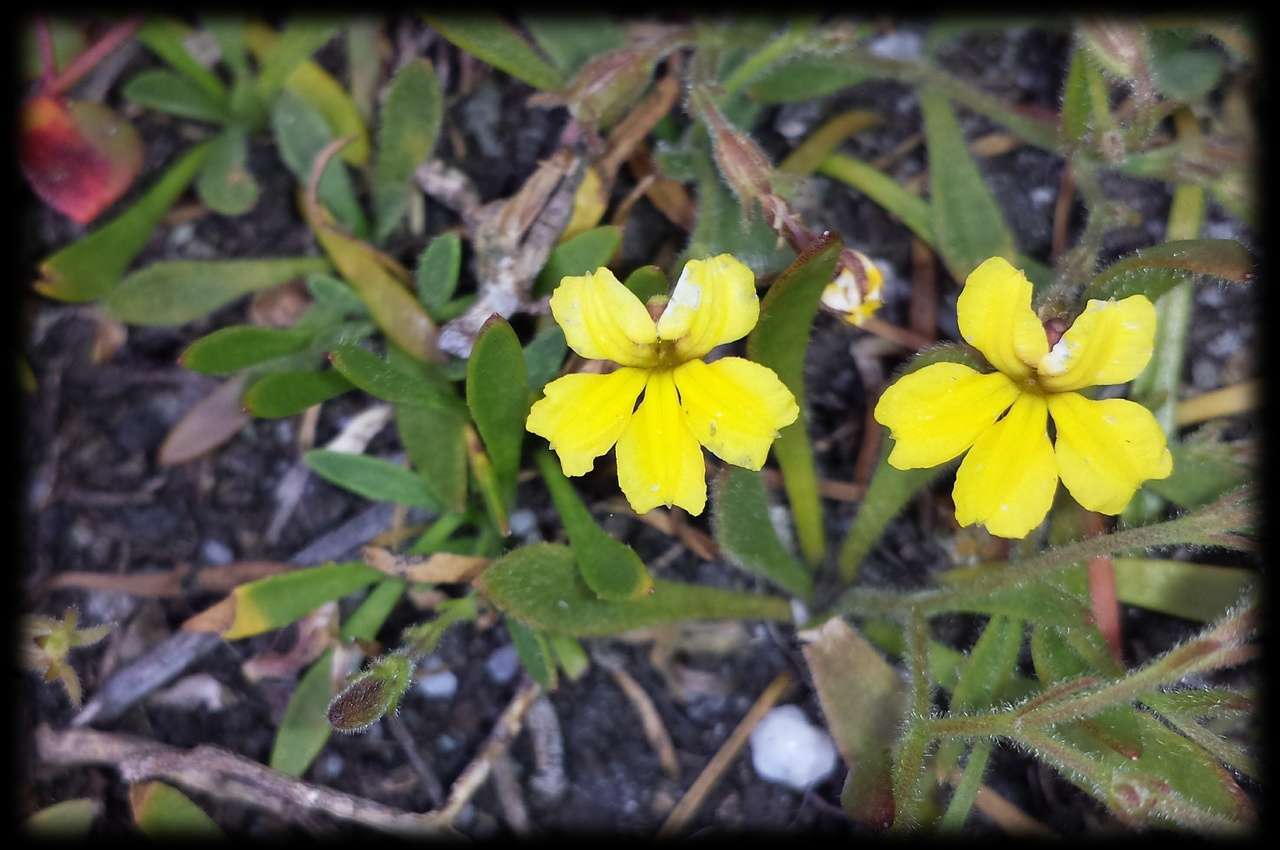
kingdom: Plantae
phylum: Tracheophyta
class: Magnoliopsida
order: Asterales
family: Goodeniaceae
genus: Goodenia
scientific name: Goodenia humilis
